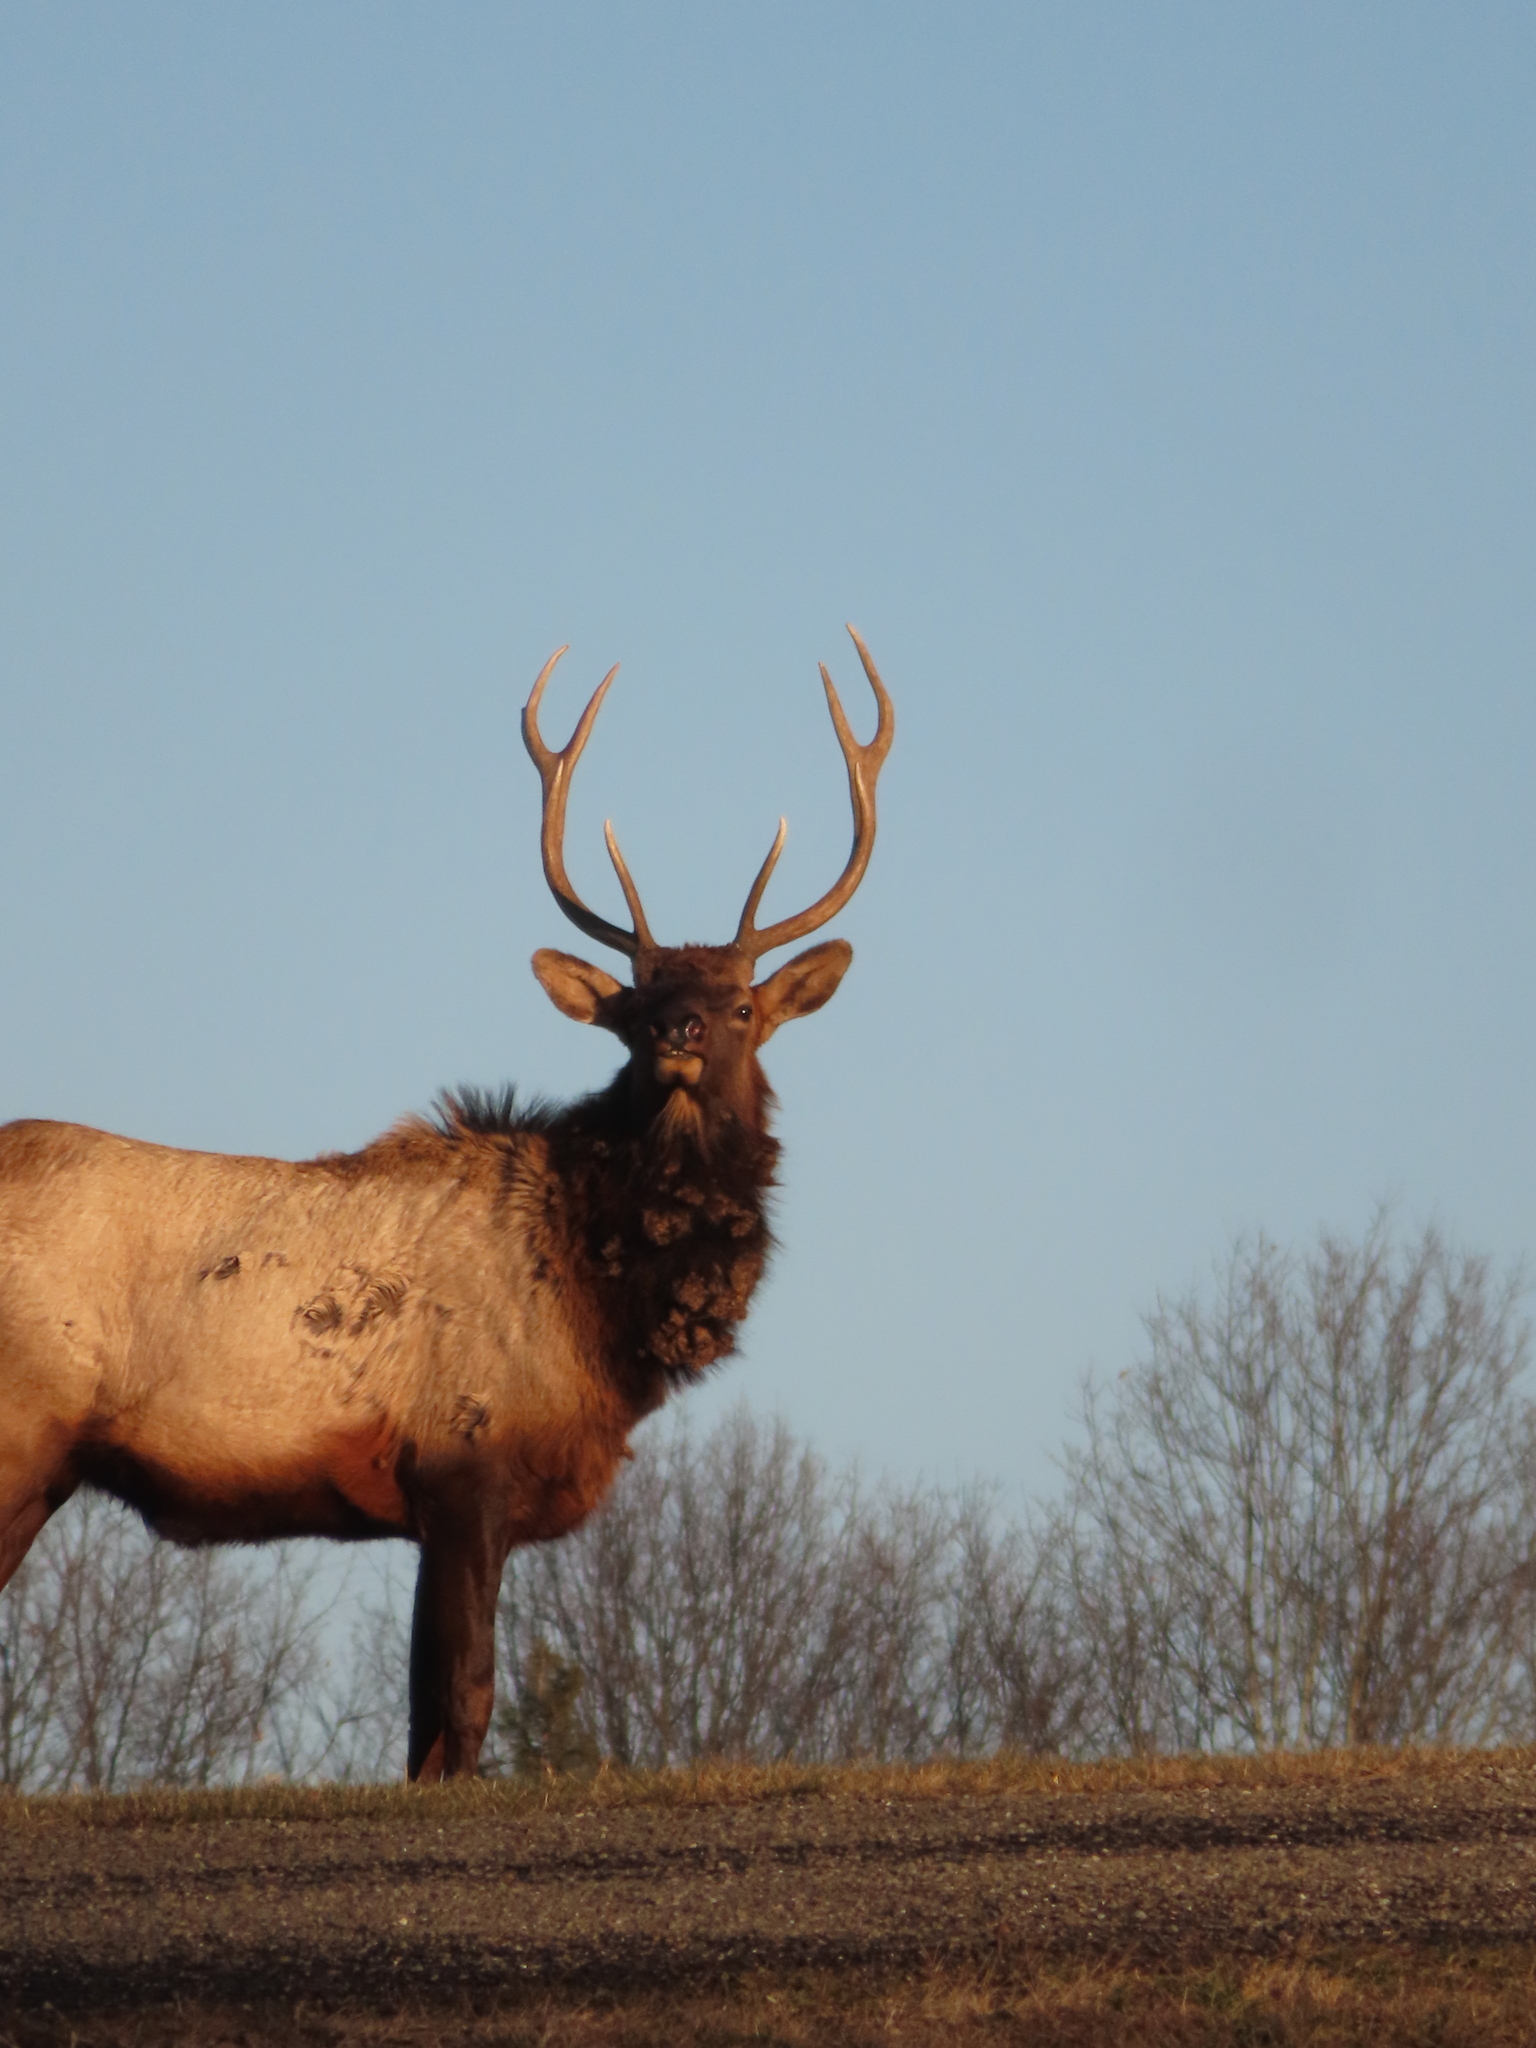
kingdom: Animalia
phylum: Chordata
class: Mammalia
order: Artiodactyla
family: Cervidae
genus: Cervus
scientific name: Cervus elaphus
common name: Red deer
